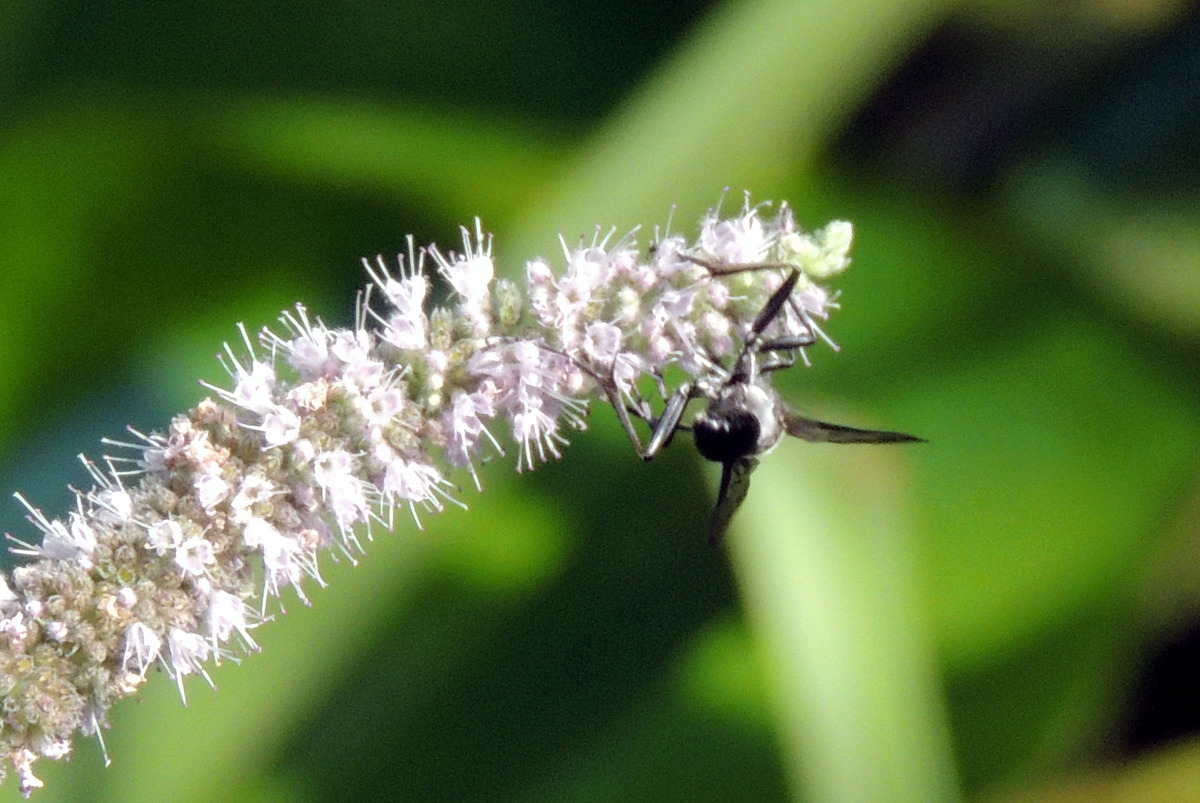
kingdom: Animalia
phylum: Arthropoda
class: Insecta
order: Hymenoptera
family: Sphecidae
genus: Sphex
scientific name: Sphex pruinosus
